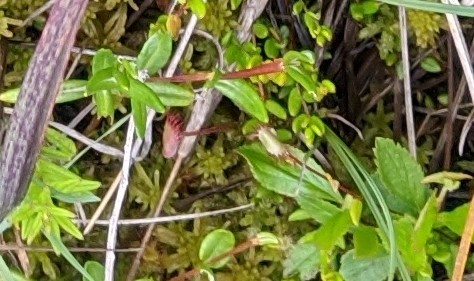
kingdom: Plantae
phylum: Tracheophyta
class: Magnoliopsida
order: Caryophyllales
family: Droseraceae
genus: Drosera
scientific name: Drosera rotundifolia
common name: Round-leaved sundew
